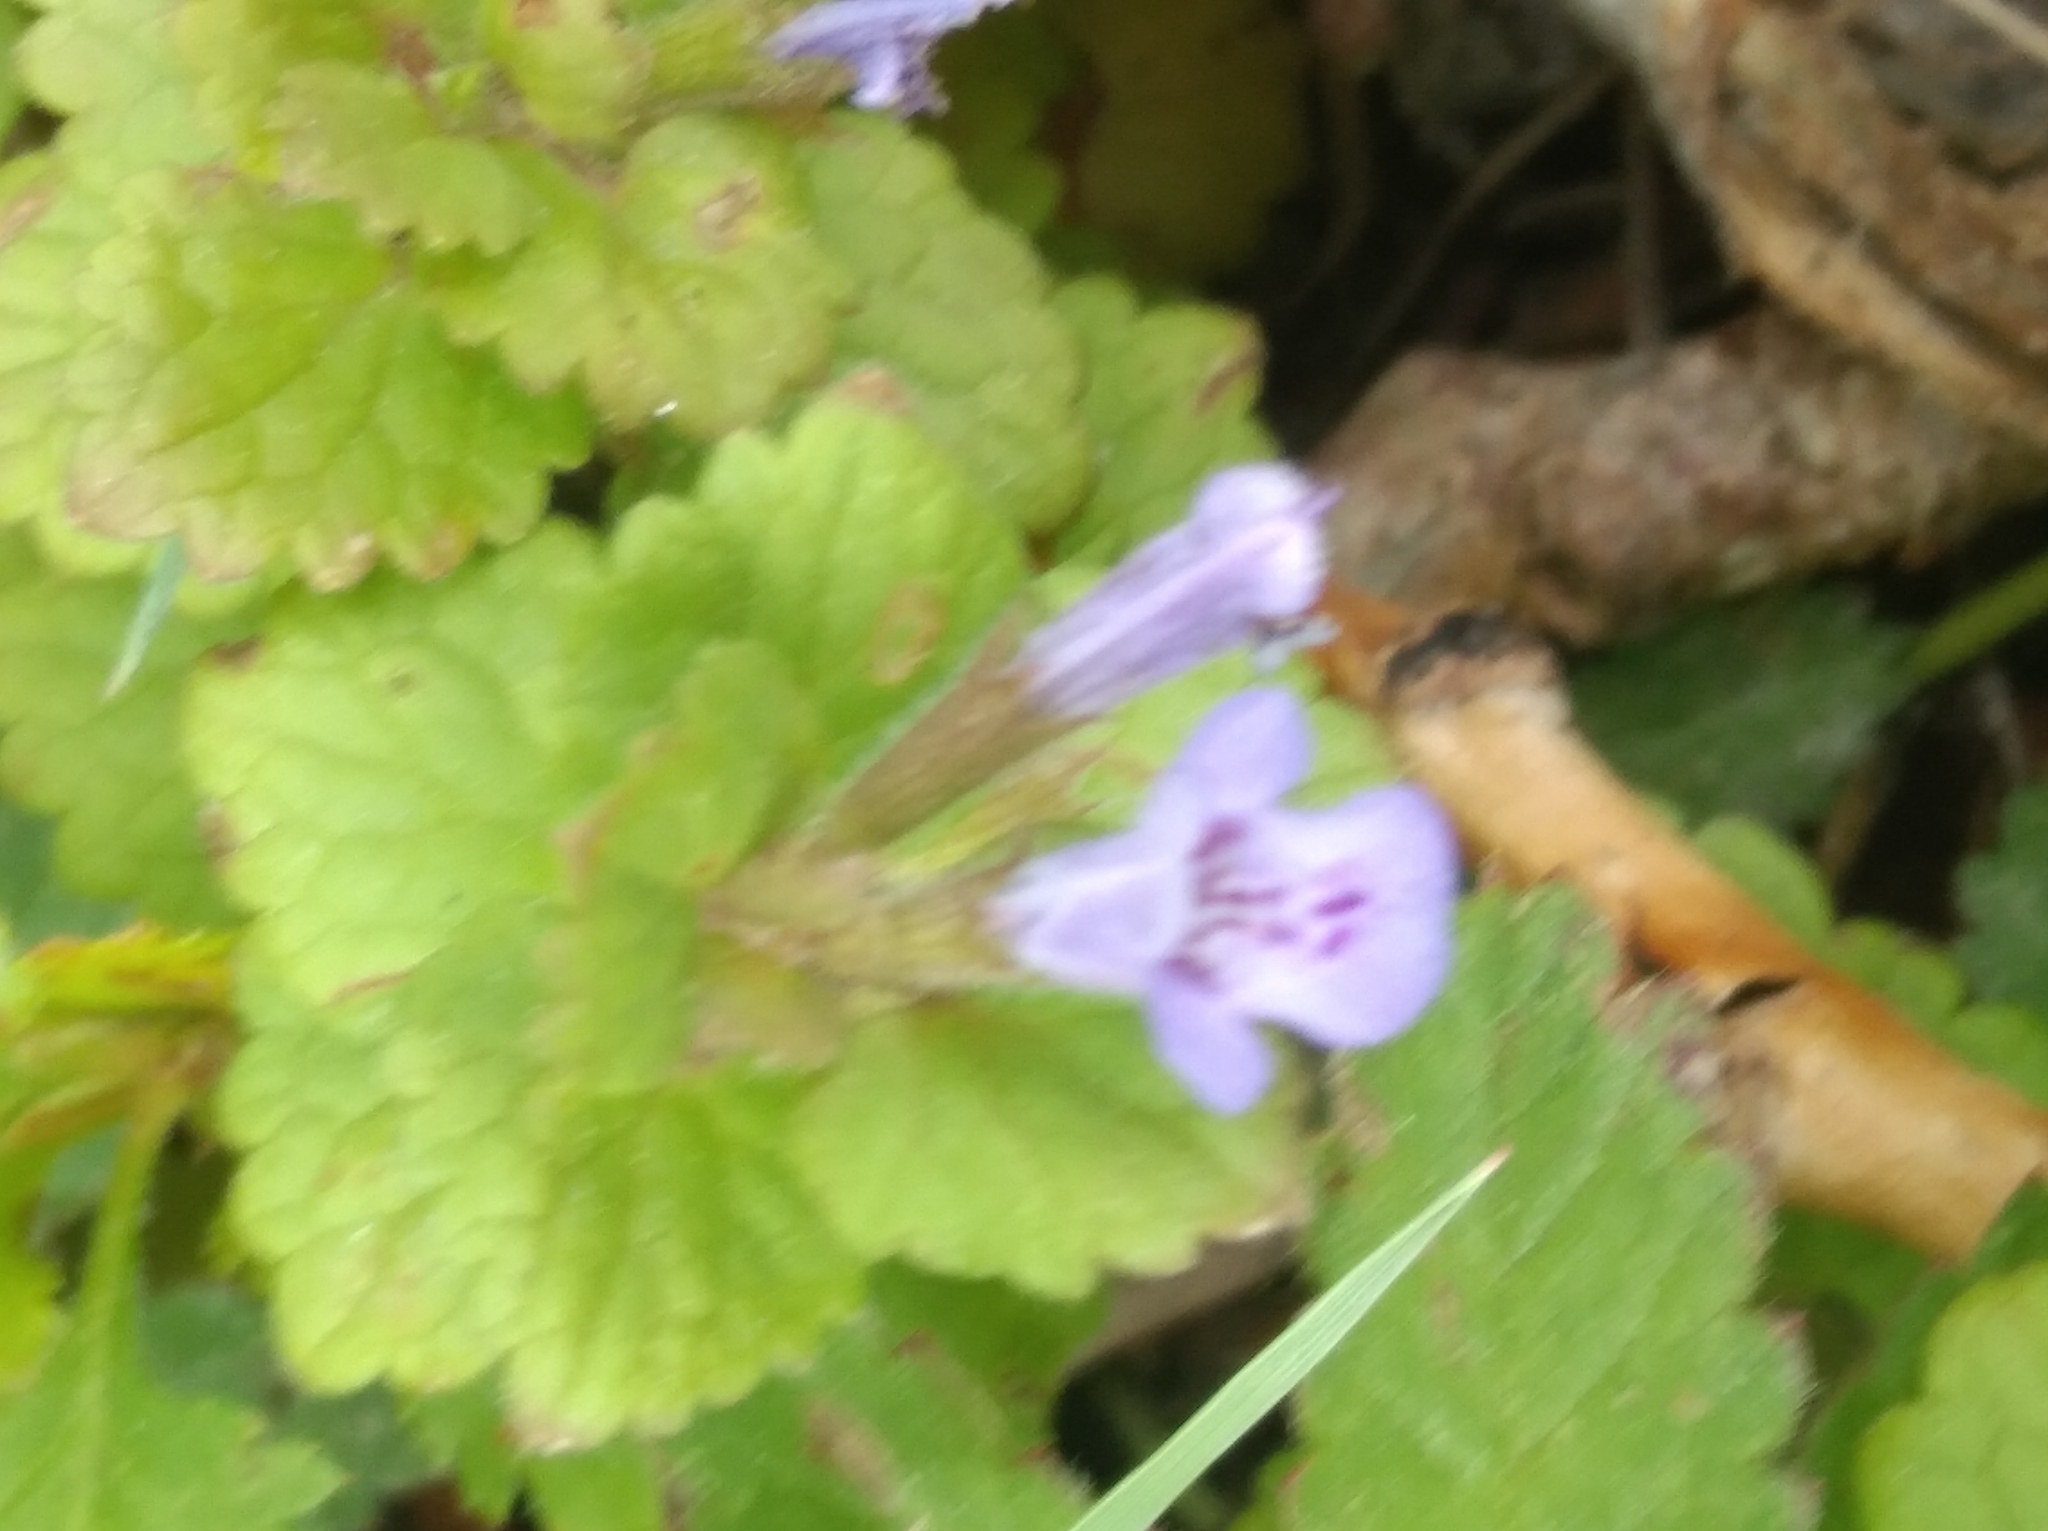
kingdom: Plantae
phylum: Tracheophyta
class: Magnoliopsida
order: Lamiales
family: Lamiaceae
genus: Glechoma
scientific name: Glechoma hederacea
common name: Ground ivy
